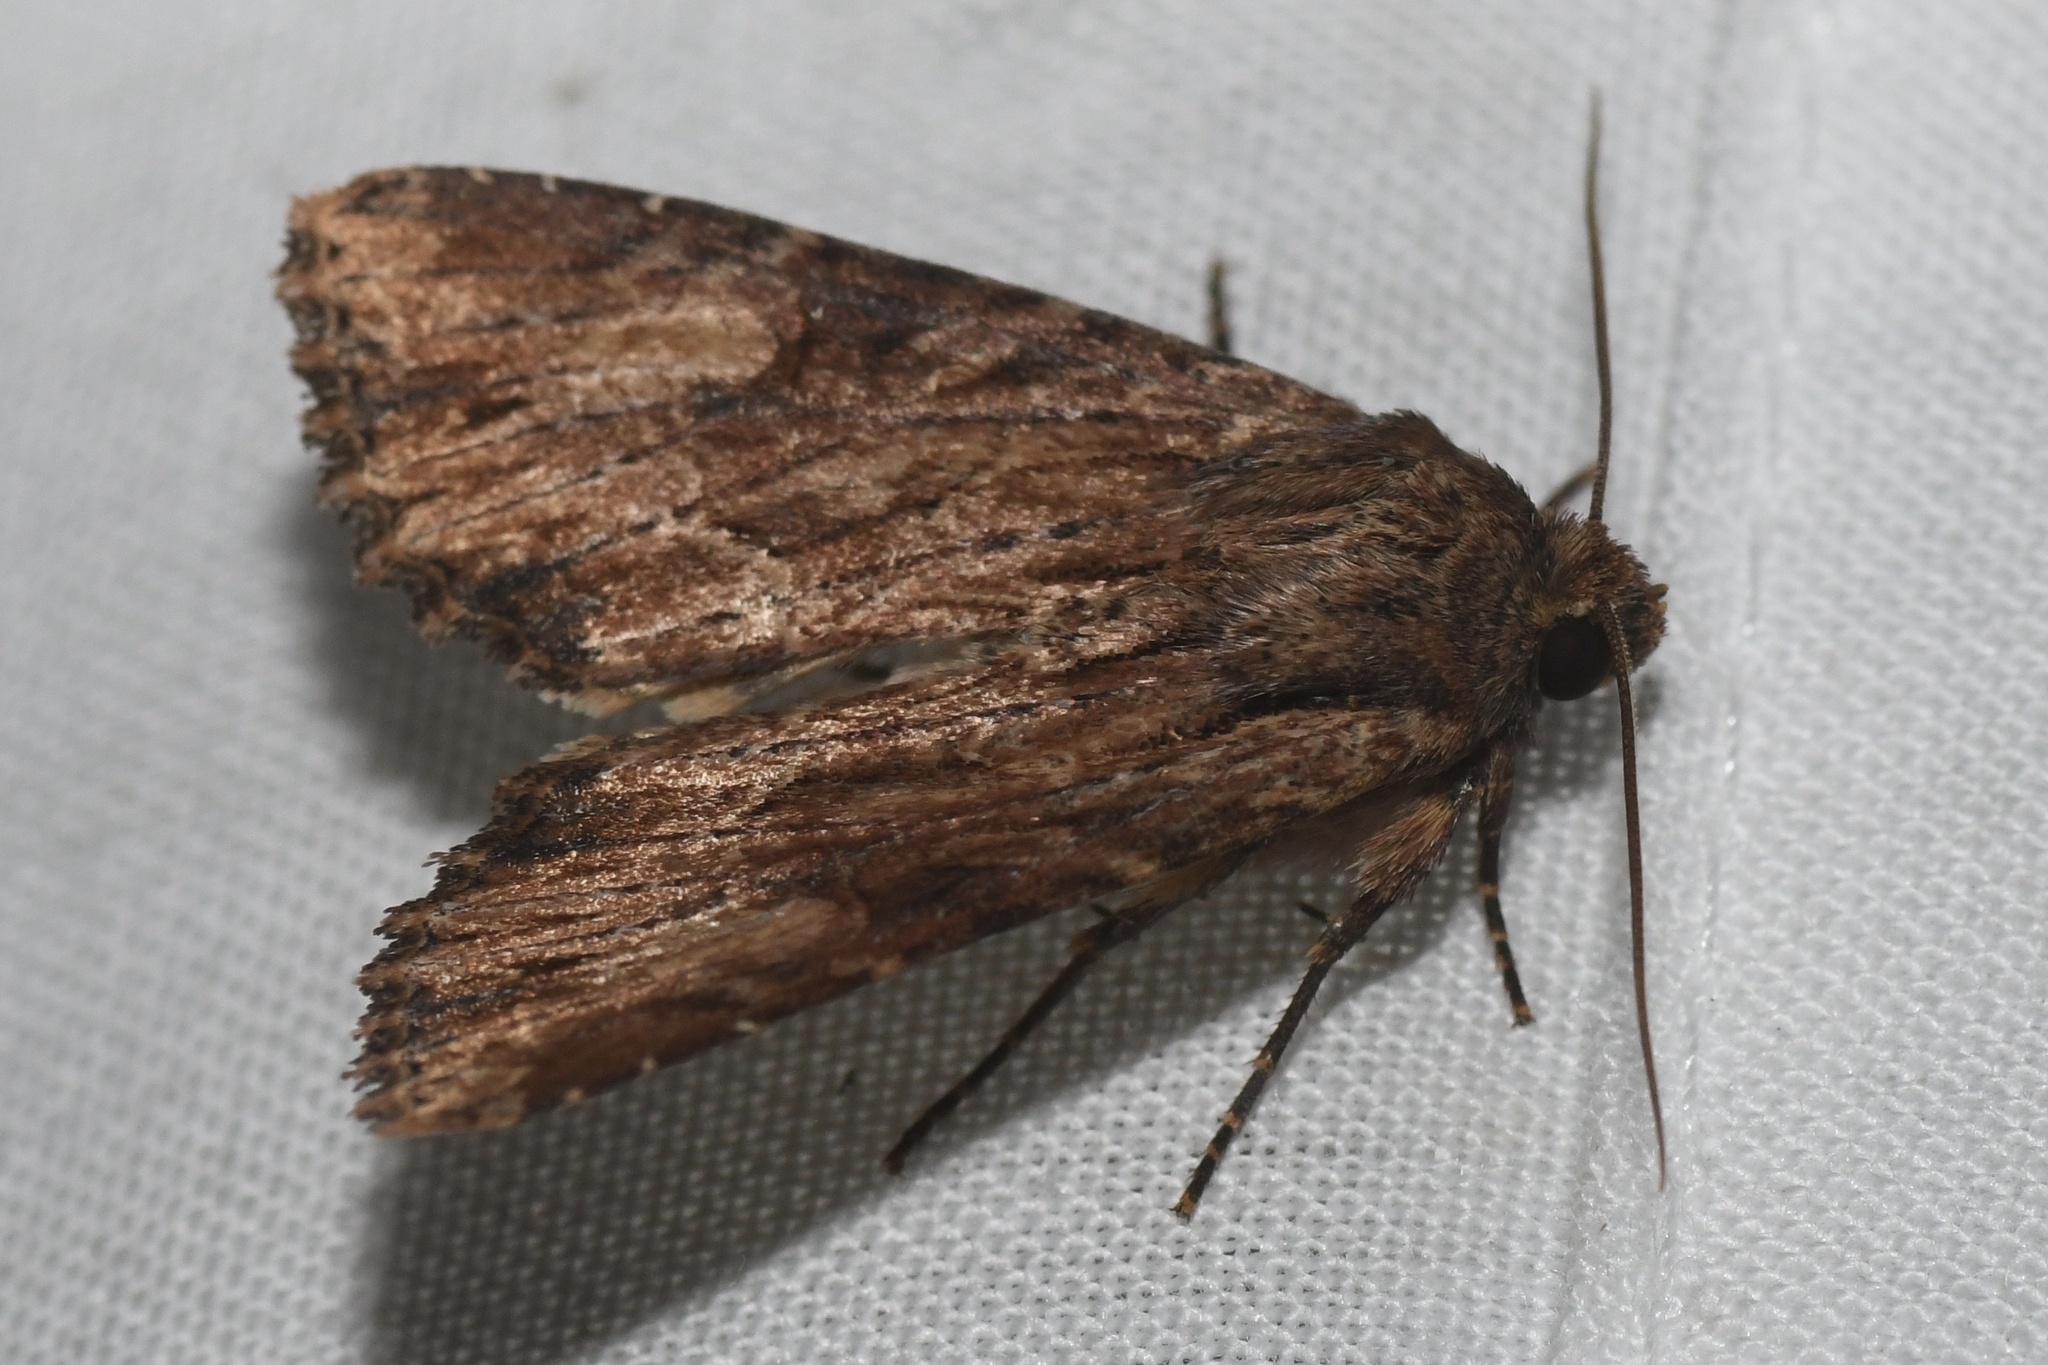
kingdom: Animalia
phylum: Arthropoda
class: Insecta
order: Lepidoptera
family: Noctuidae
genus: Apamea
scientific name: Apamea lignicolora
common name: Wood-colored apamea moth
